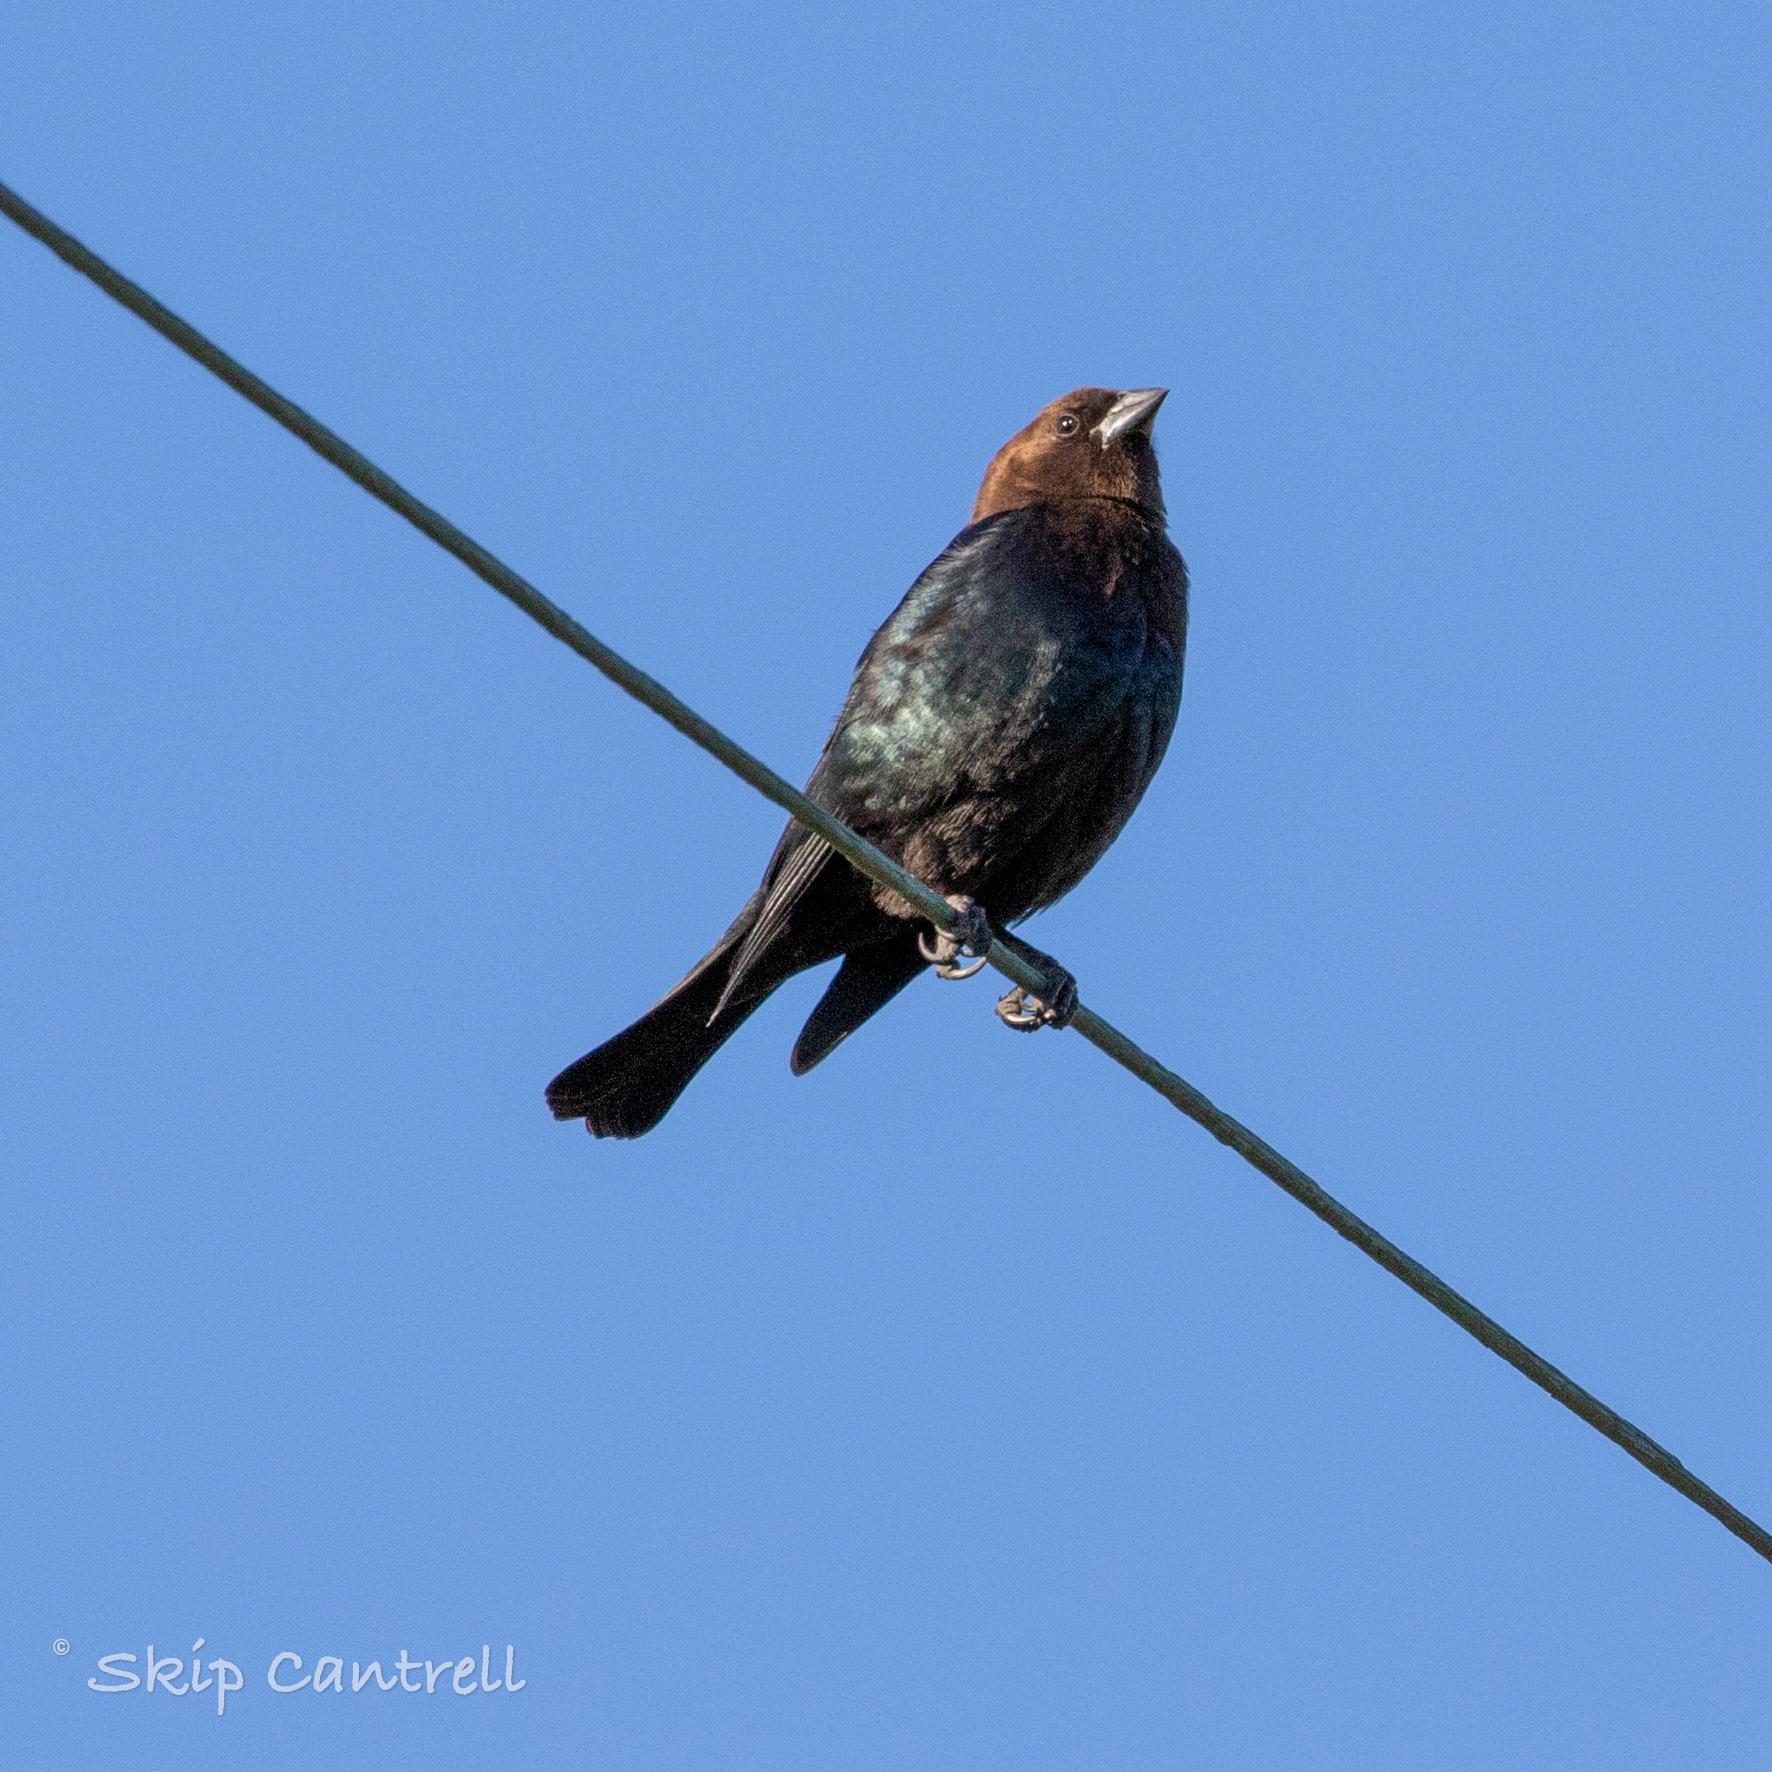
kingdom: Animalia
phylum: Chordata
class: Aves
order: Passeriformes
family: Icteridae
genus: Molothrus
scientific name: Molothrus ater
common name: Brown-headed cowbird
